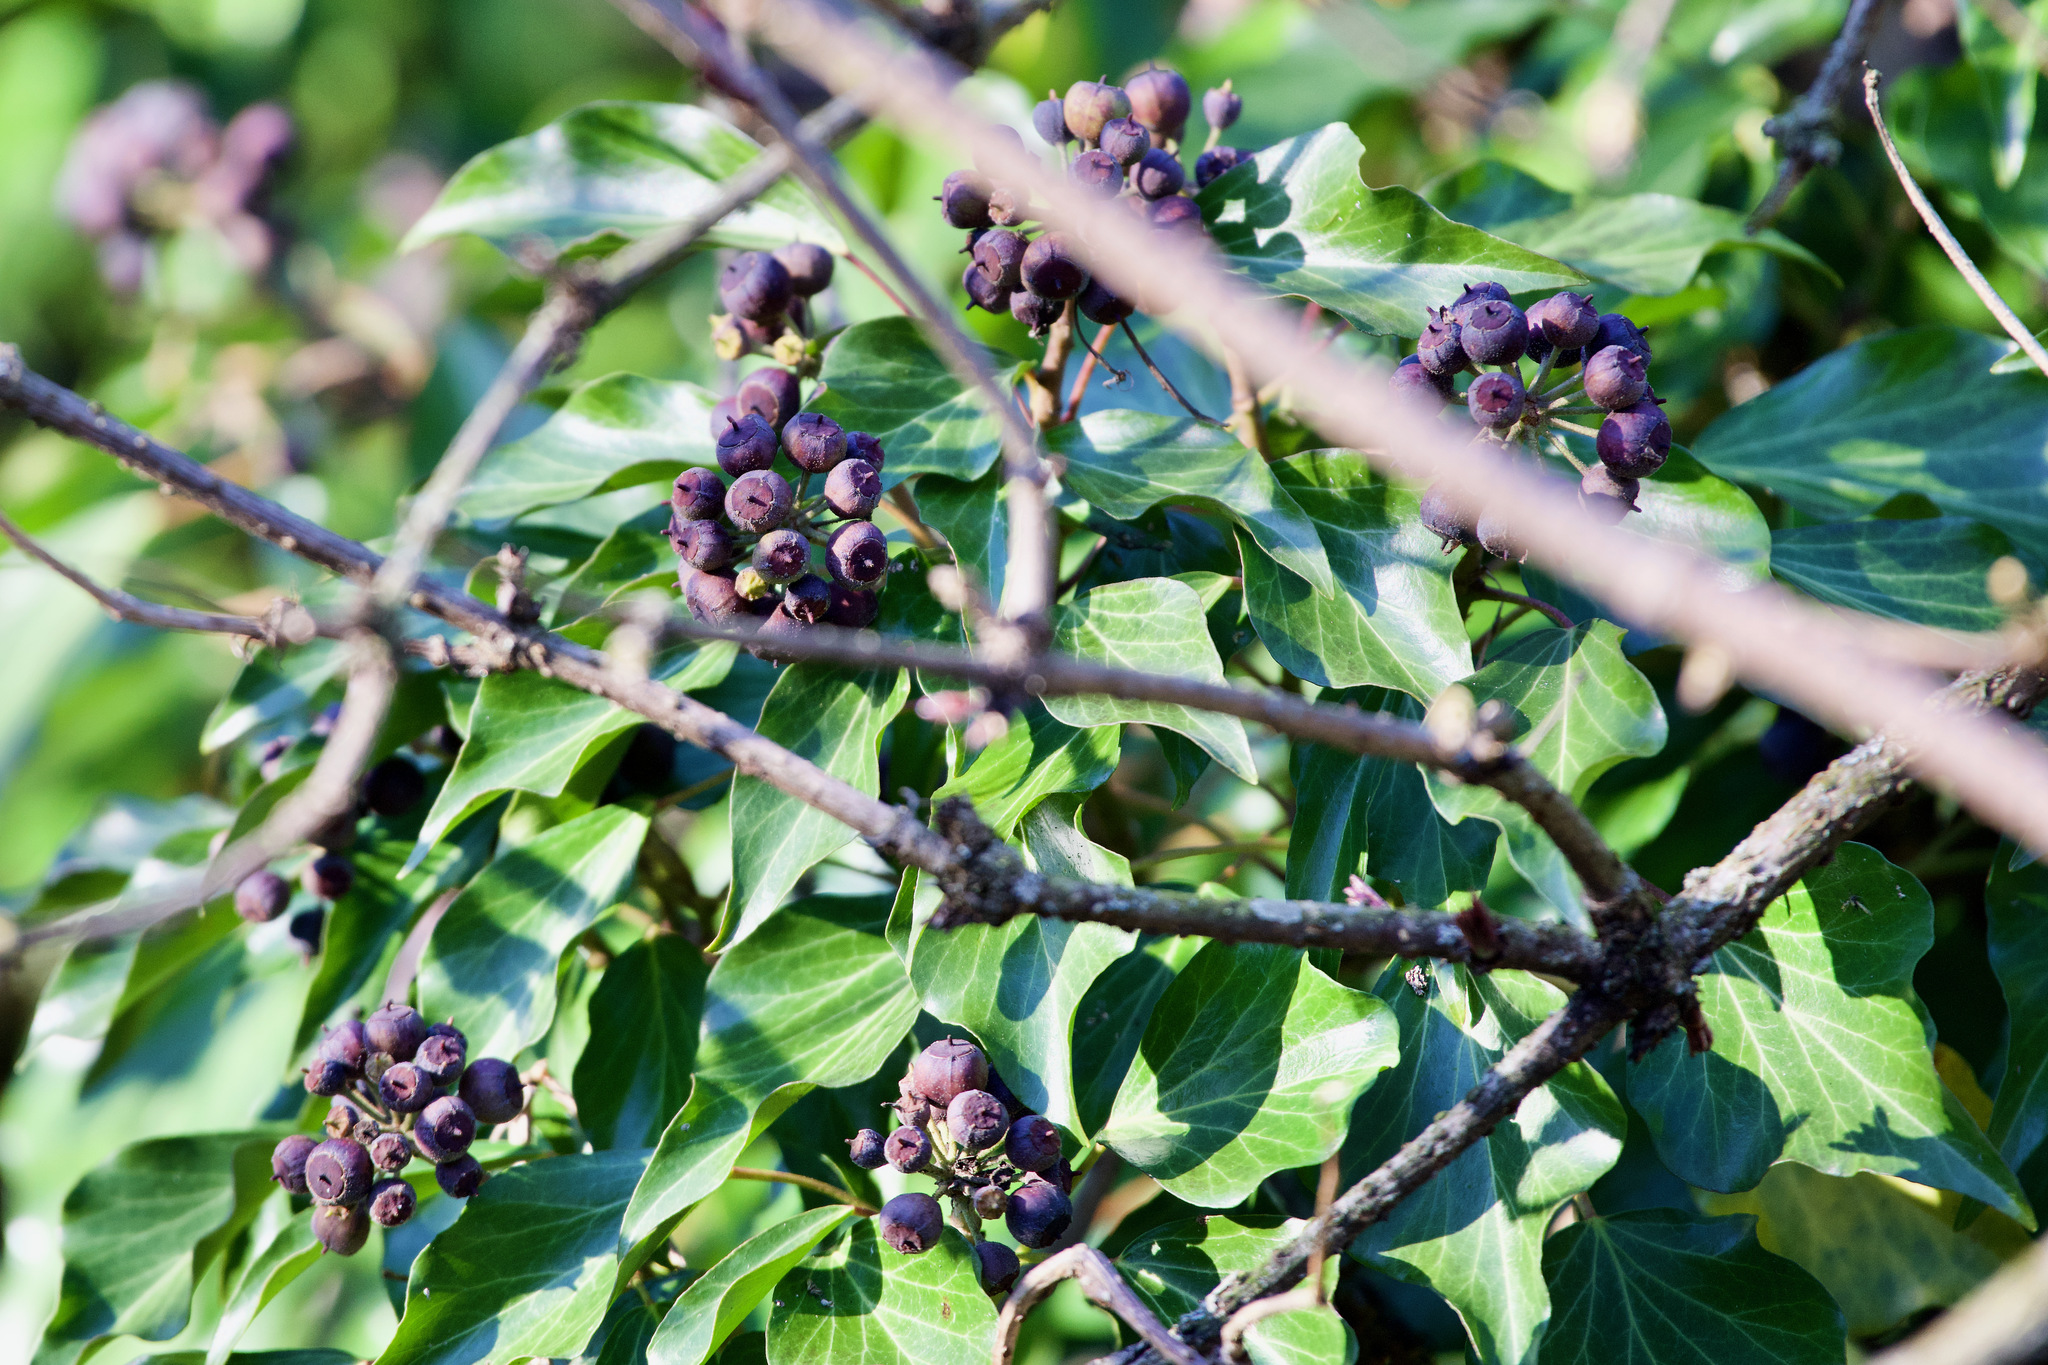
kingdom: Plantae
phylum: Tracheophyta
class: Magnoliopsida
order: Apiales
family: Araliaceae
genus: Hedera
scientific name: Hedera helix
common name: Ivy
